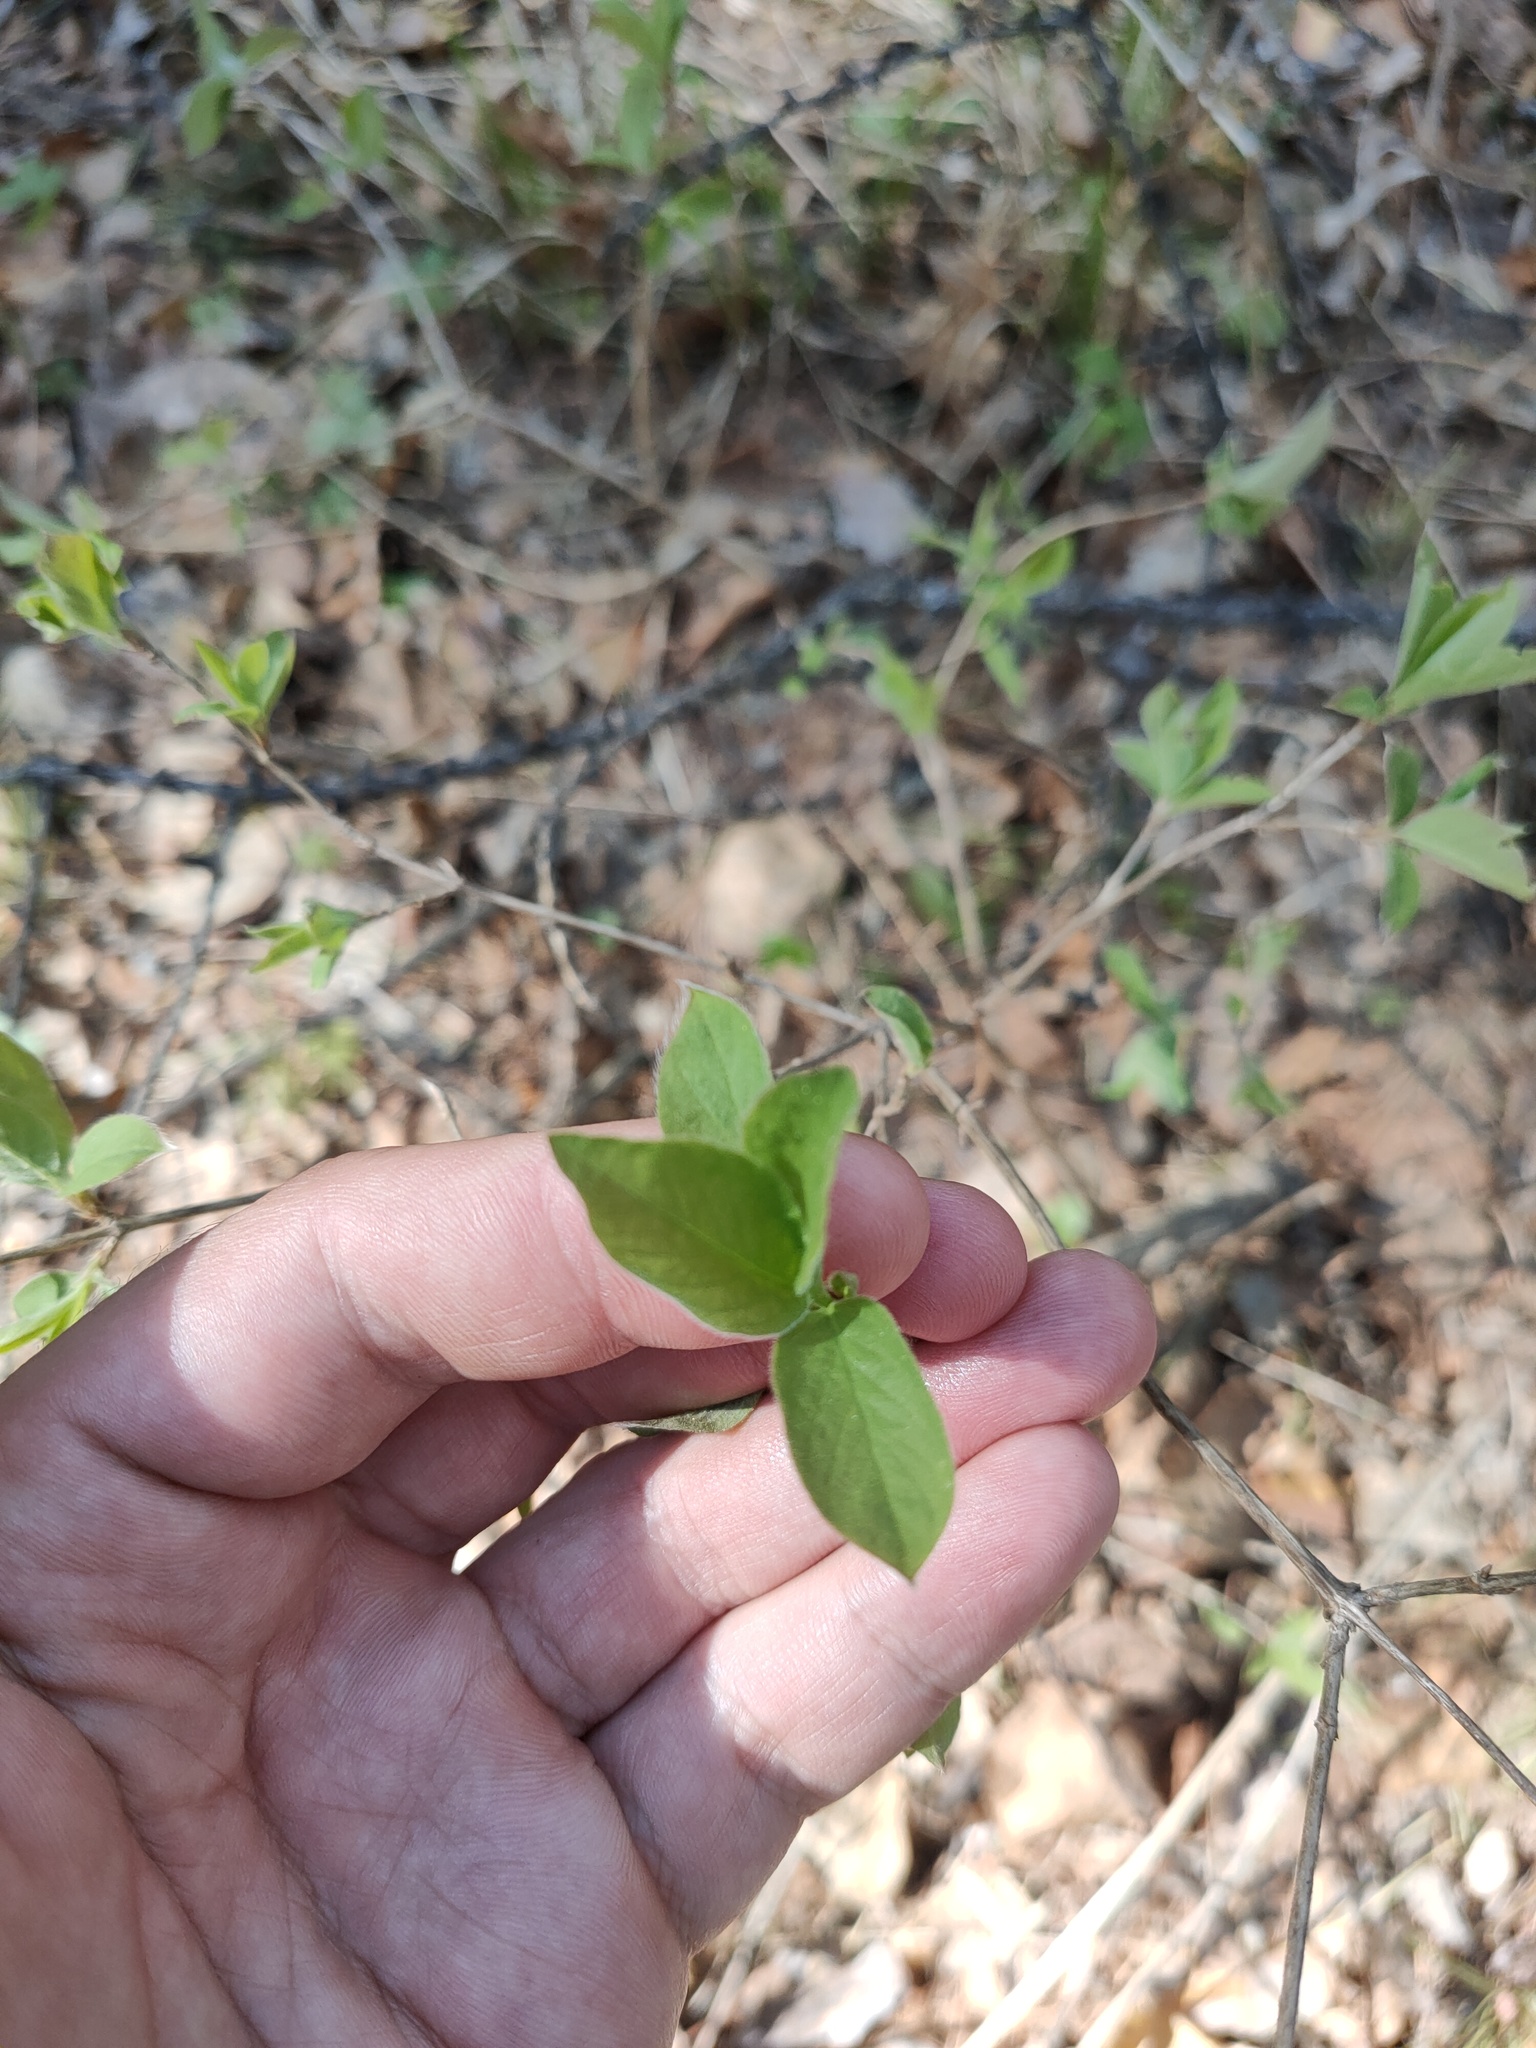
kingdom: Plantae
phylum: Tracheophyta
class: Magnoliopsida
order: Dipsacales
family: Caprifoliaceae
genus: Lonicera
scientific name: Lonicera xylosteum
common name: Fly honeysuckle
